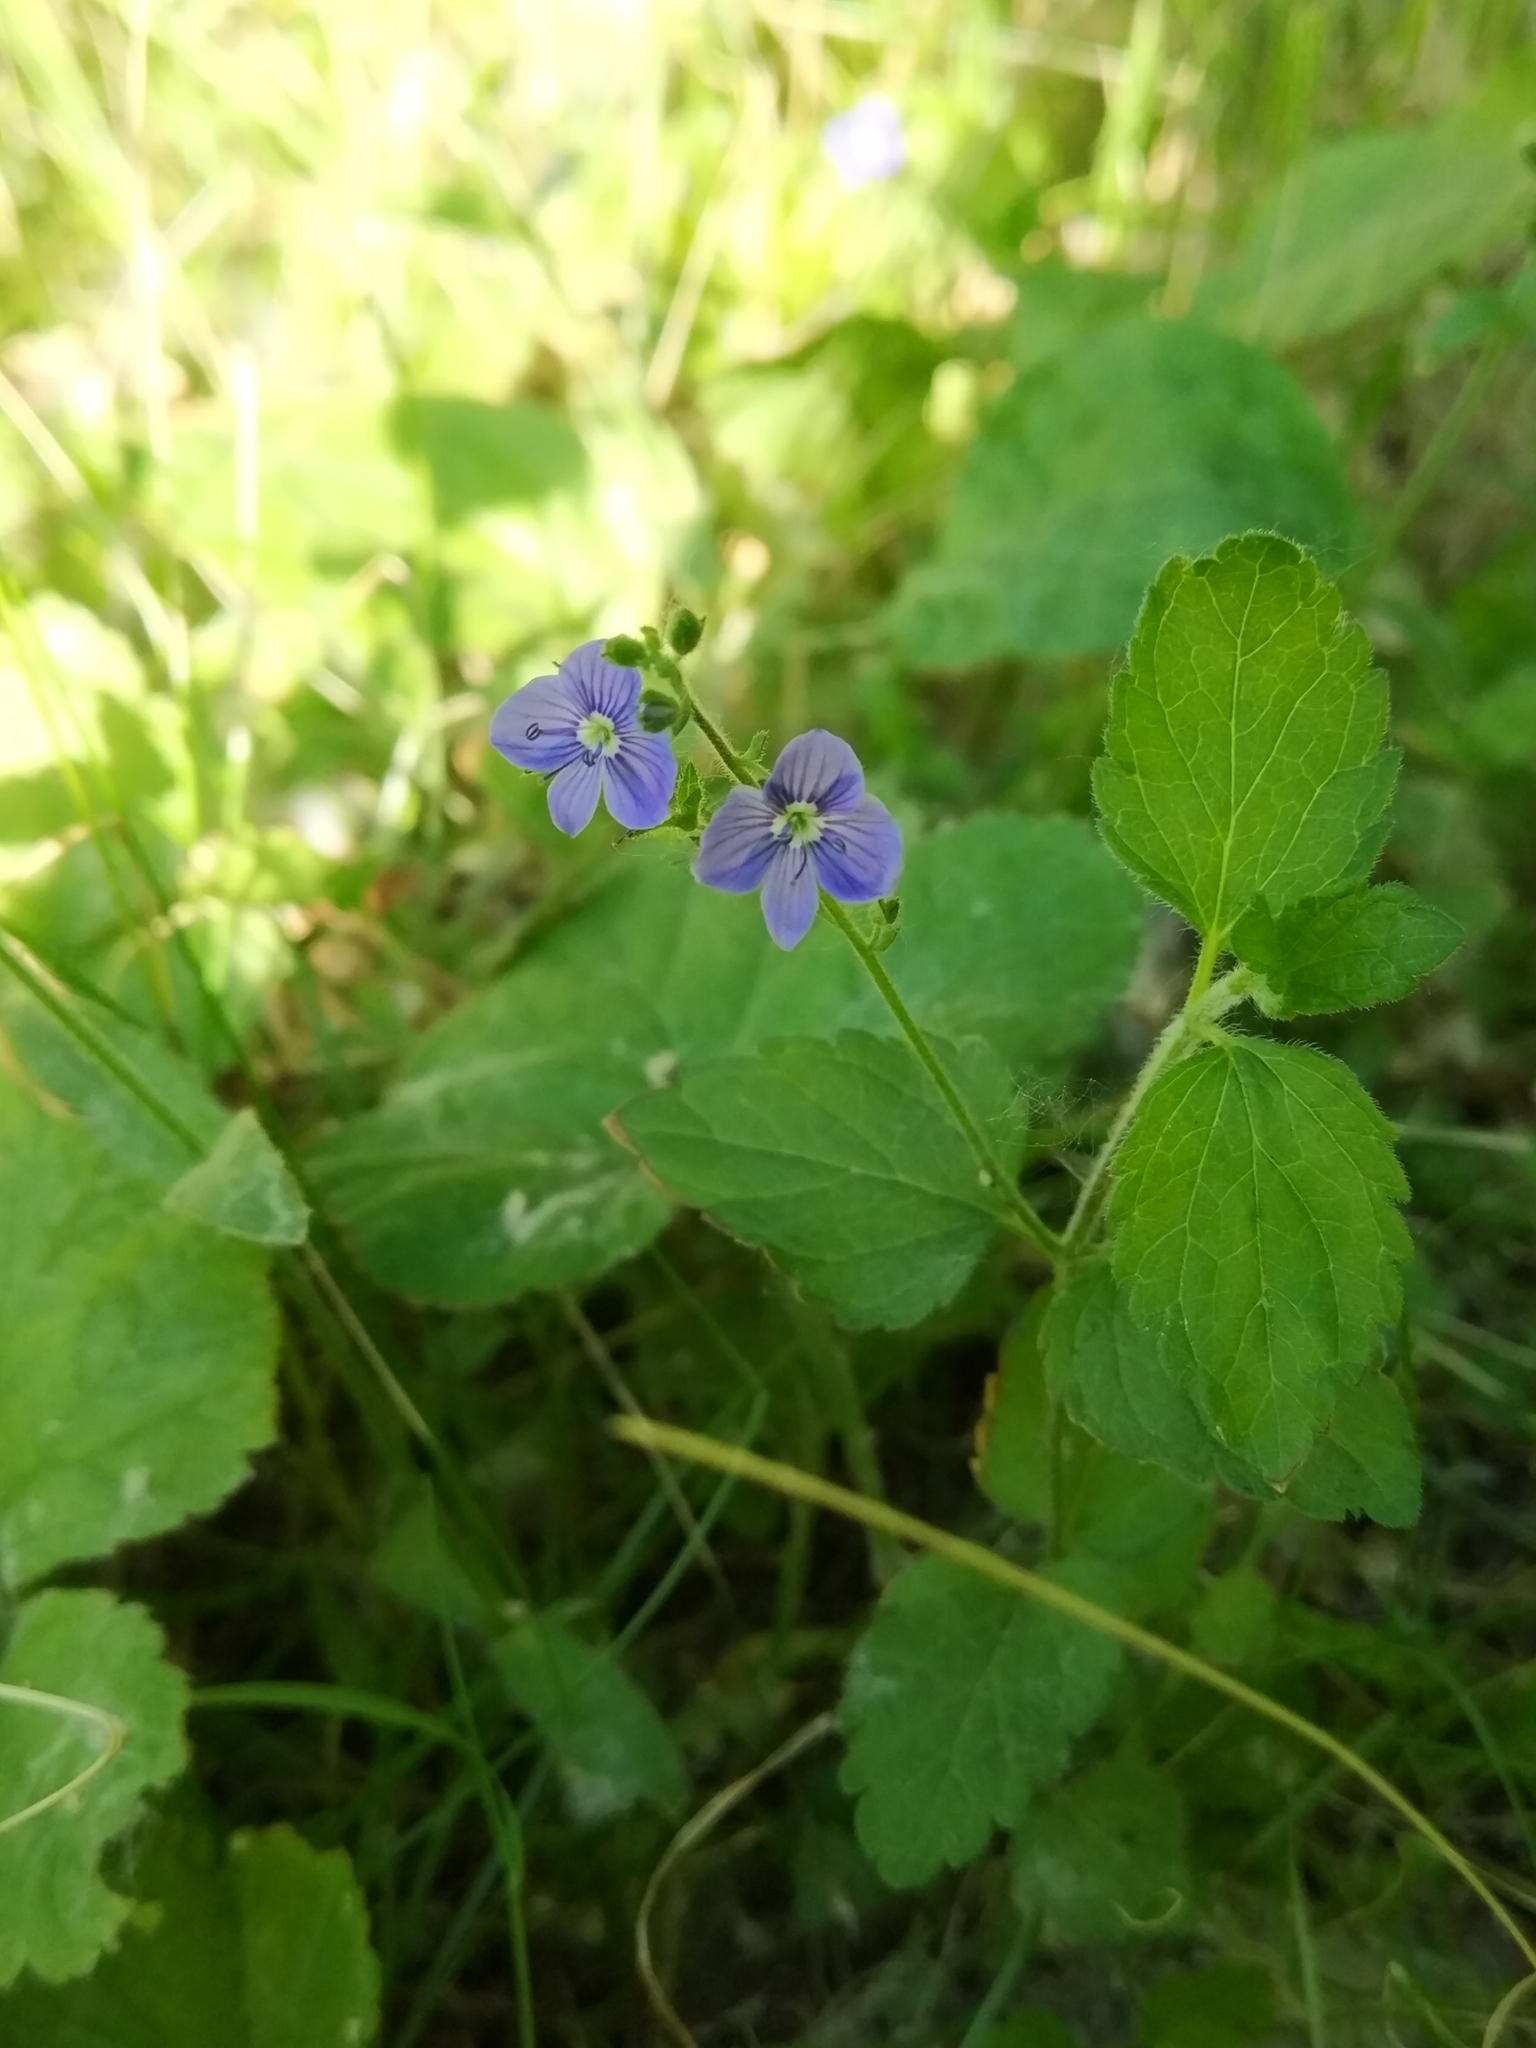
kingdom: Plantae
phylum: Tracheophyta
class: Magnoliopsida
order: Lamiales
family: Plantaginaceae
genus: Veronica
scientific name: Veronica chamaedrys
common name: Germander speedwell
